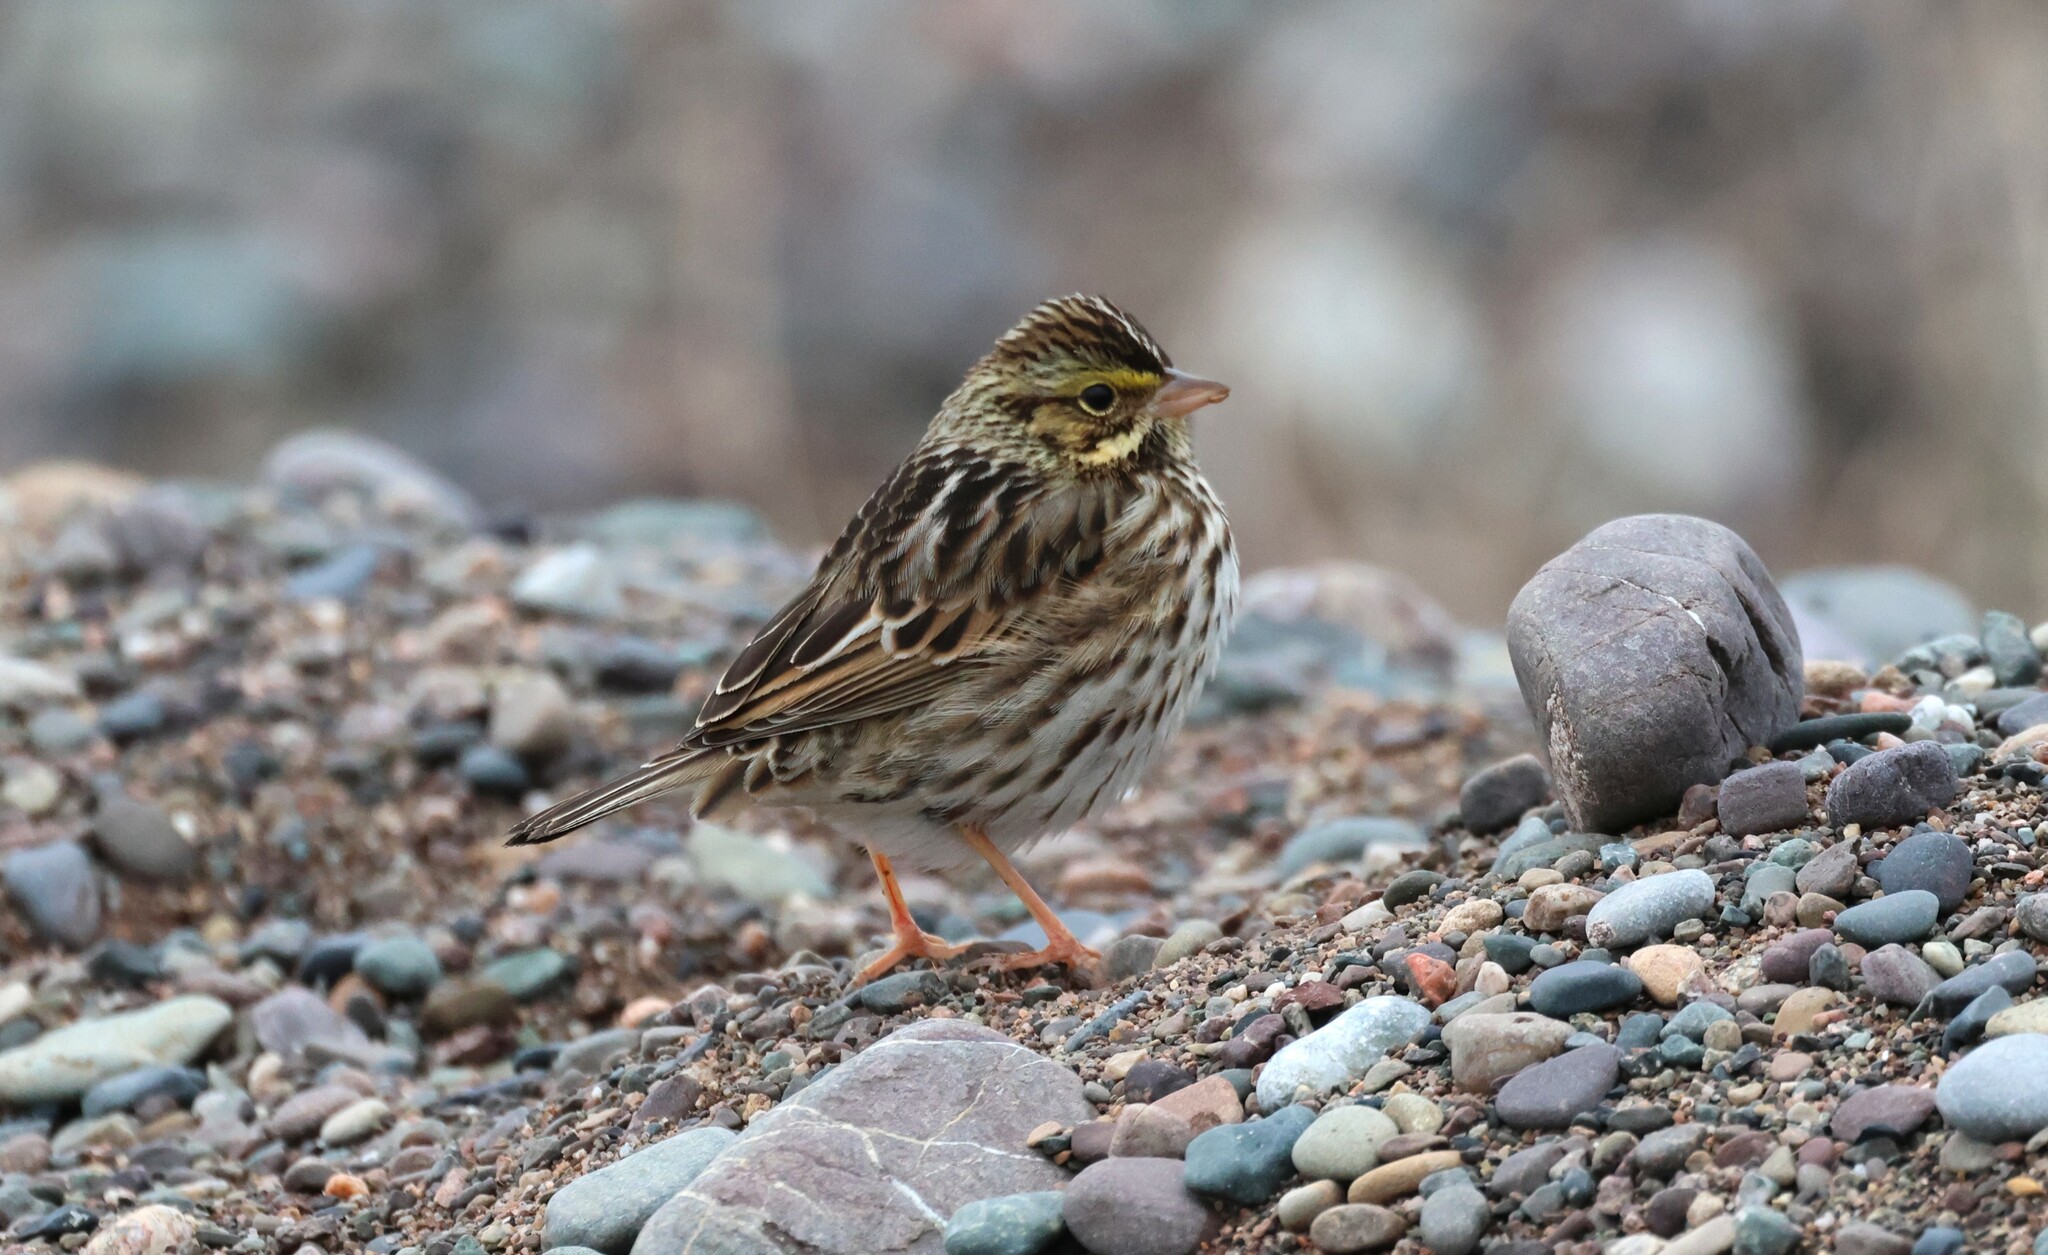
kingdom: Animalia
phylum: Chordata
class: Aves
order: Passeriformes
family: Passerellidae
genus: Passerculus
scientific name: Passerculus sandwichensis
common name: Savannah sparrow
